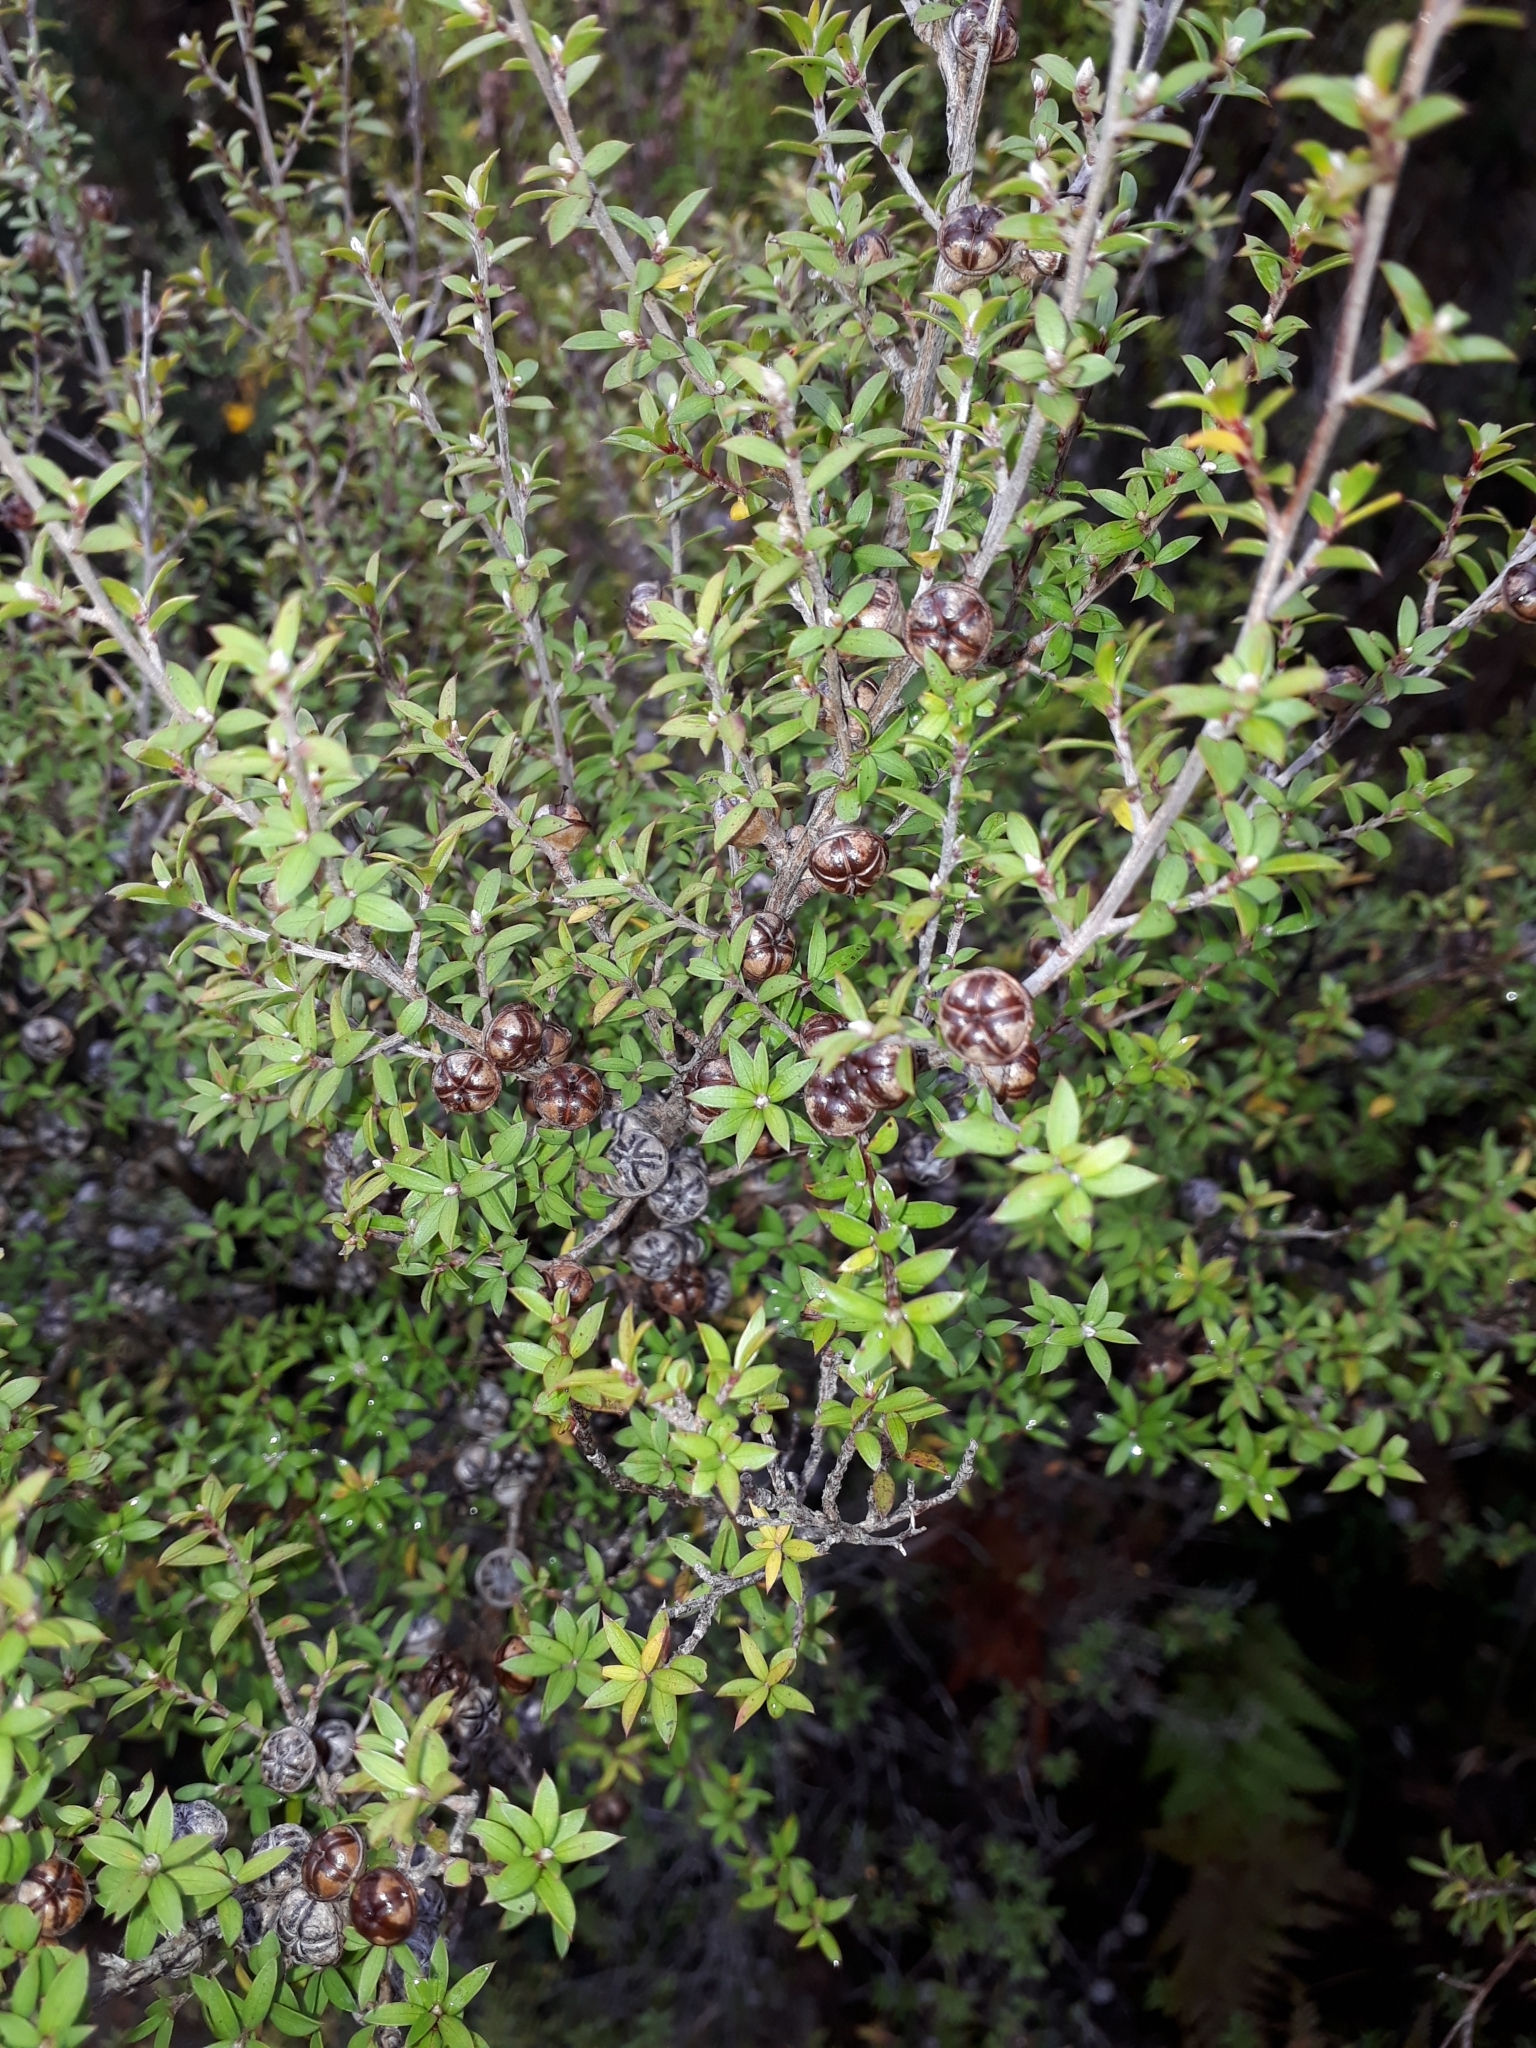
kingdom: Plantae
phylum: Tracheophyta
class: Magnoliopsida
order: Myrtales
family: Myrtaceae
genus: Leptospermum
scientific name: Leptospermum scoparium
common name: Broom tea-tree
